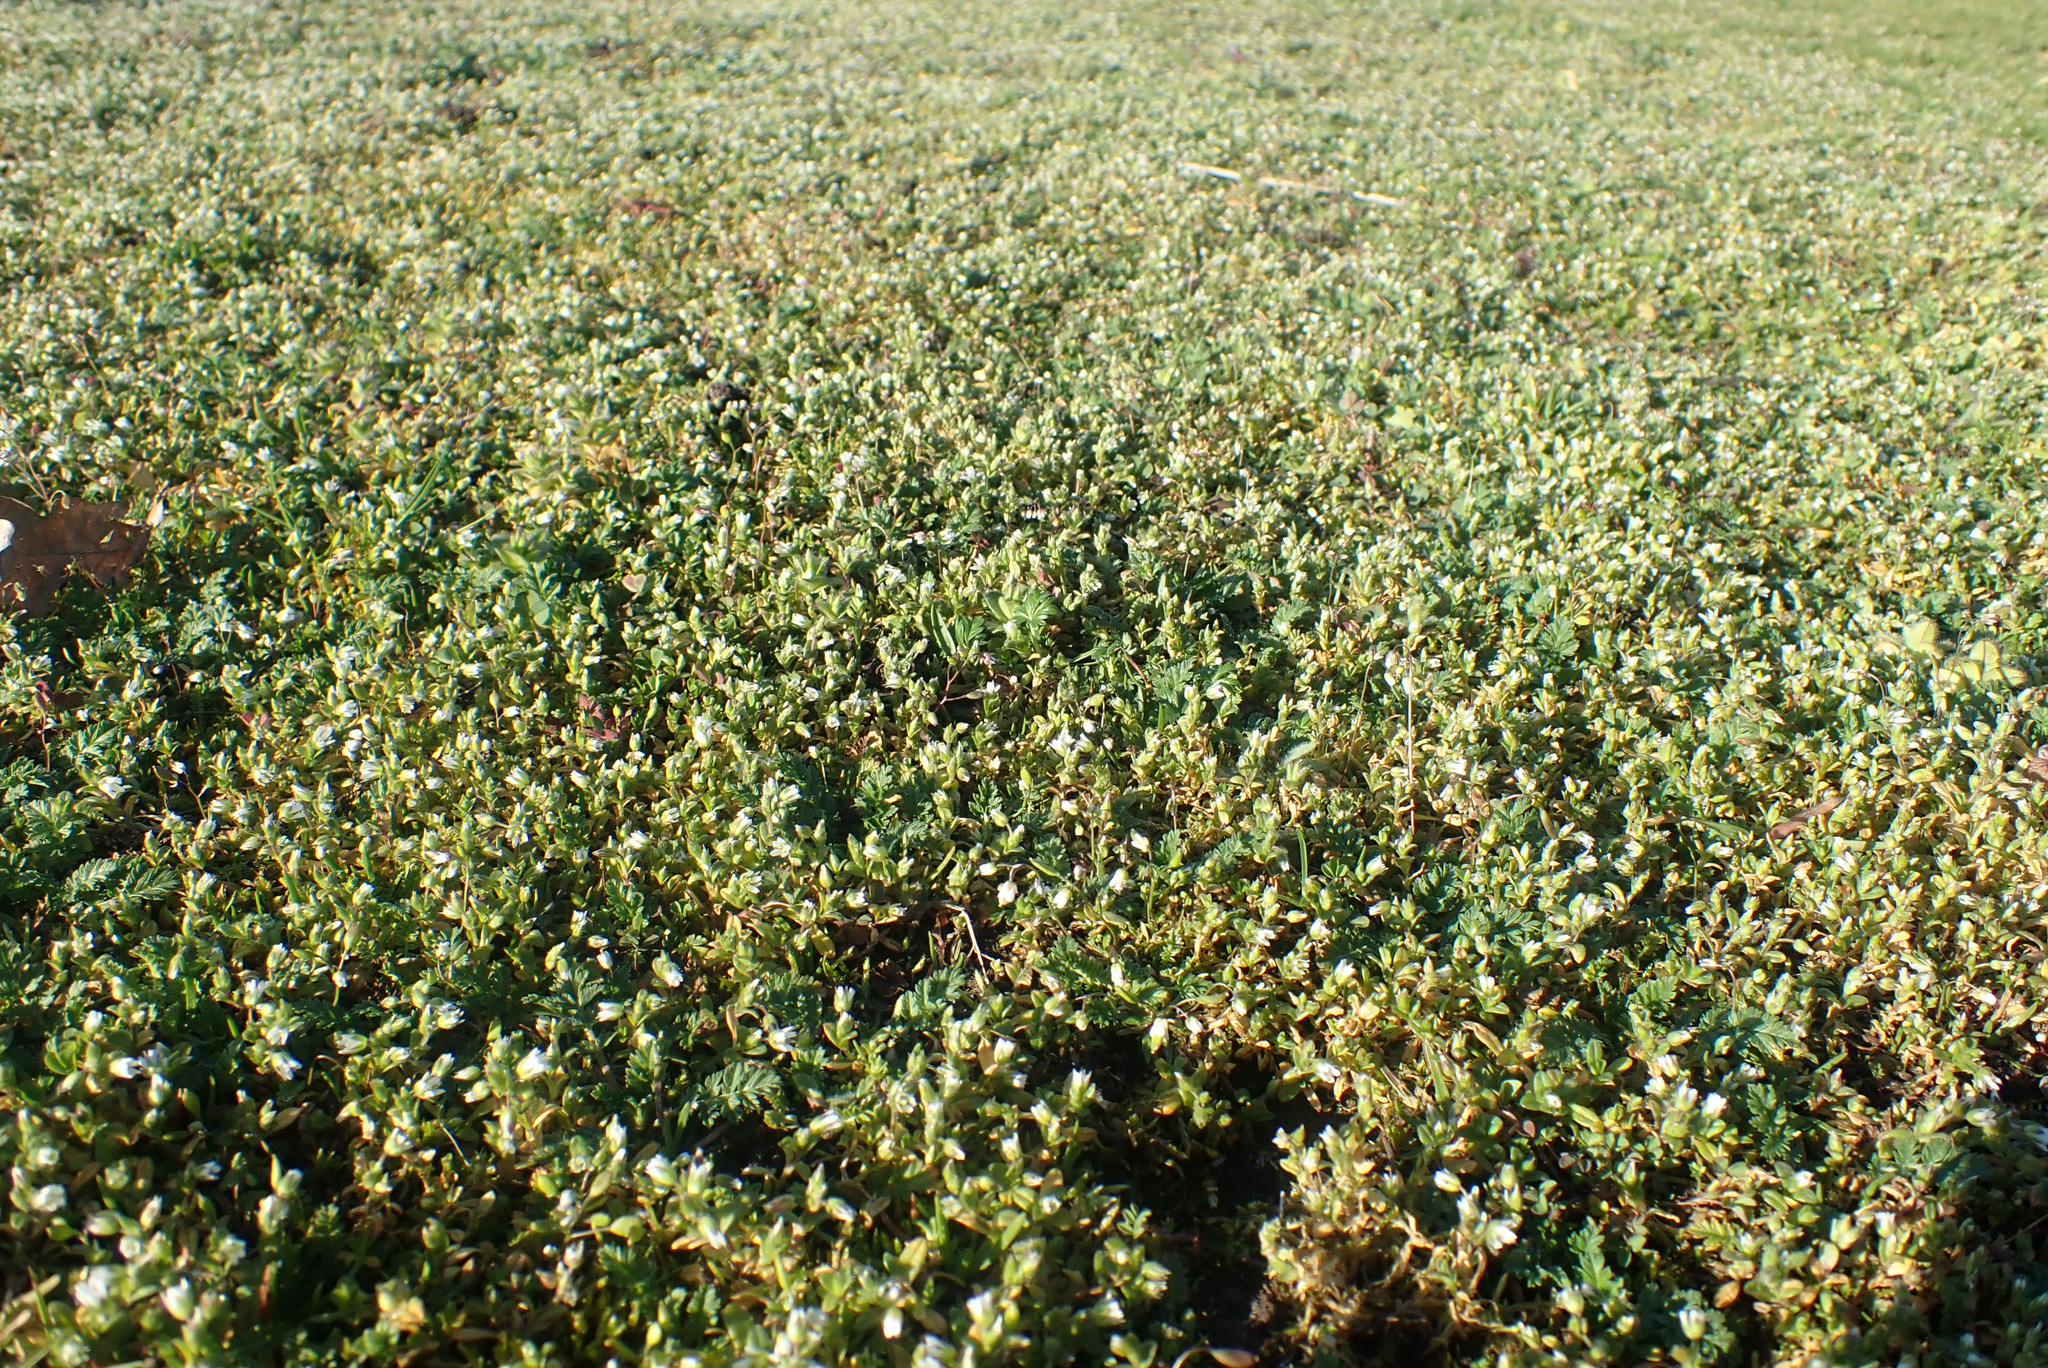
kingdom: Plantae
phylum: Tracheophyta
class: Magnoliopsida
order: Caryophyllales
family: Caryophyllaceae
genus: Cerastium
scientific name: Cerastium semidecandrum
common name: Little mouse-ear
